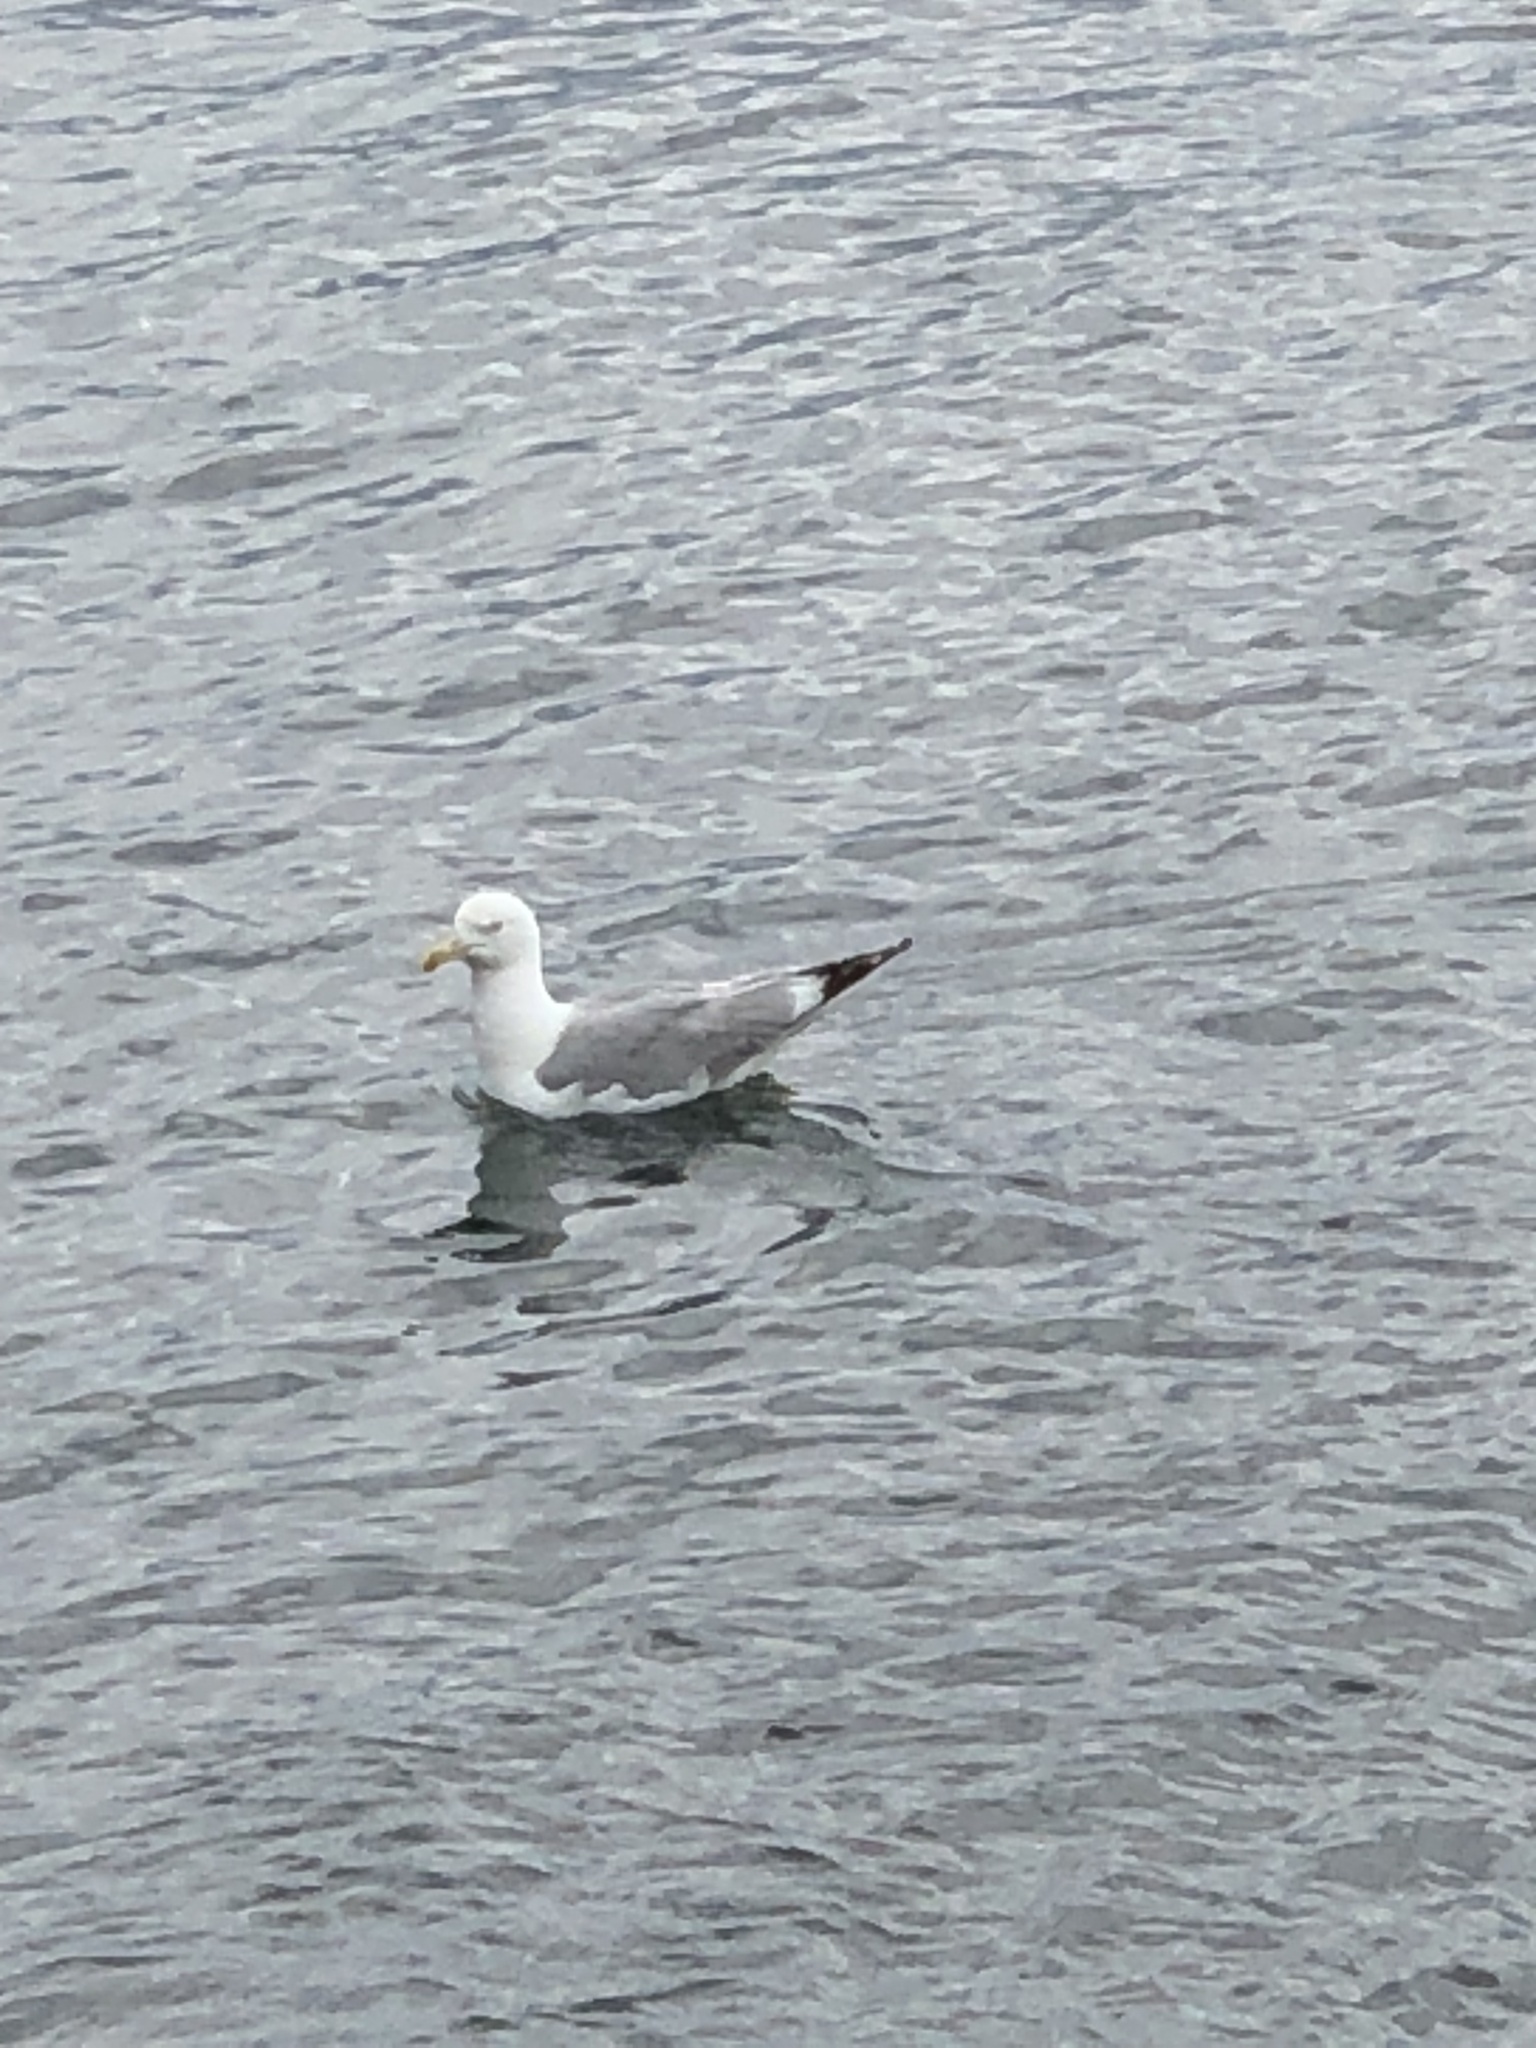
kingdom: Animalia
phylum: Chordata
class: Aves
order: Charadriiformes
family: Laridae
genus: Larus
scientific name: Larus argentatus
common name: Herring gull
